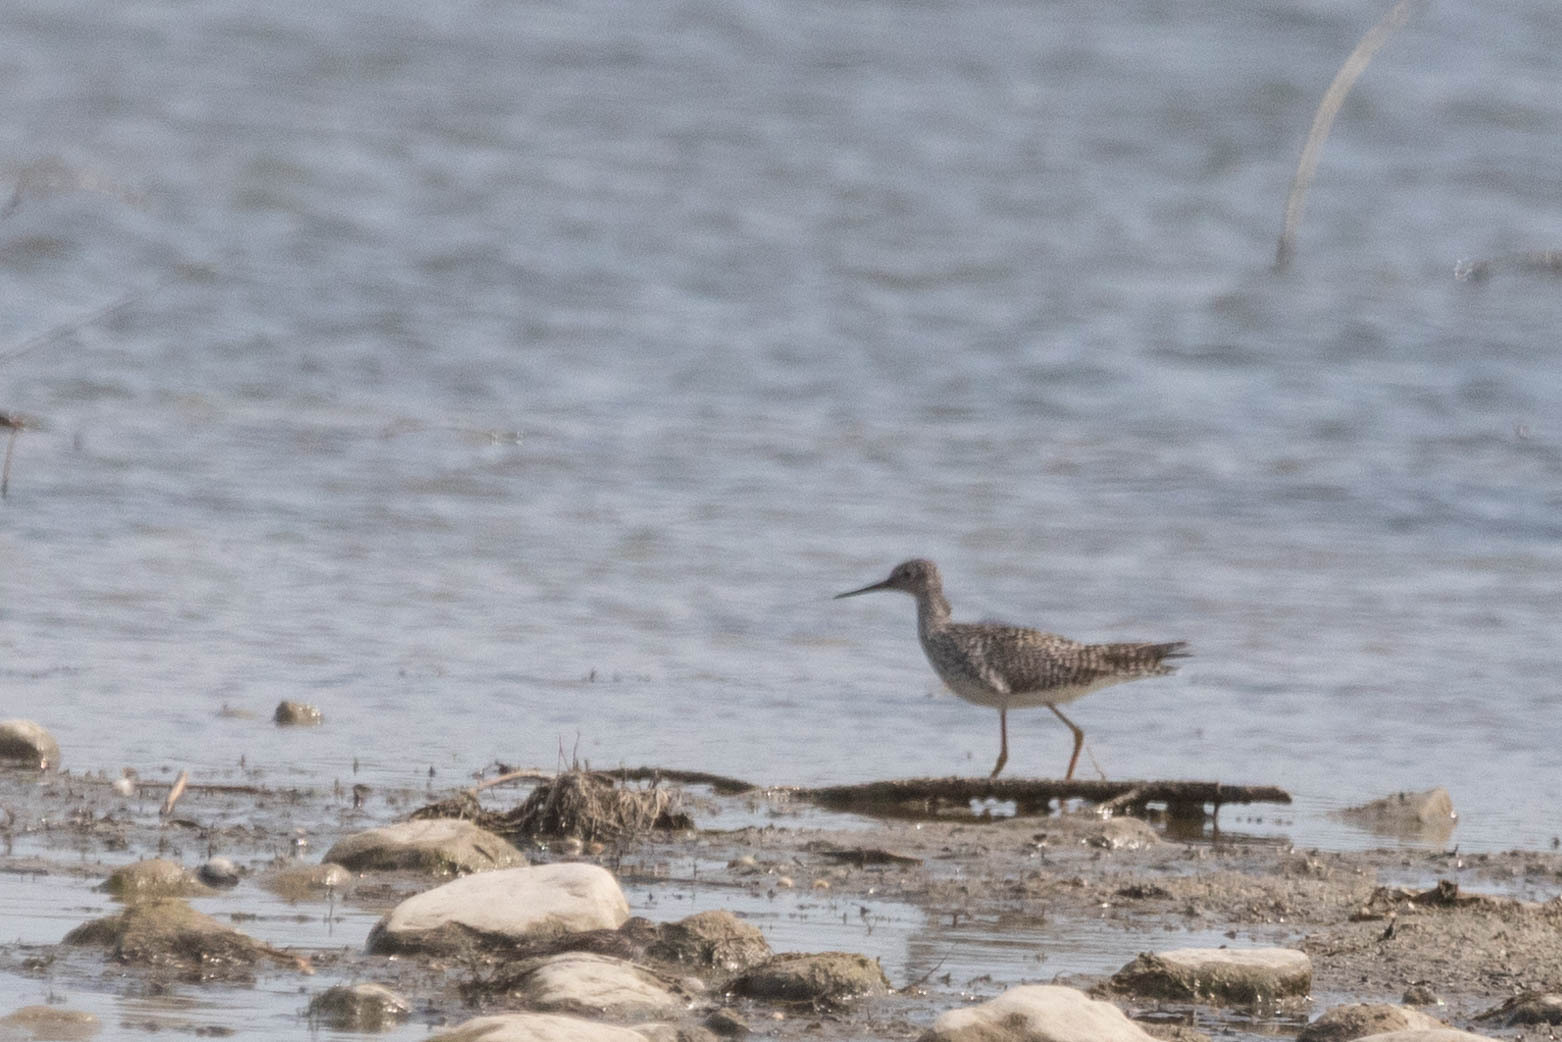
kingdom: Animalia
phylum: Chordata
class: Aves
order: Charadriiformes
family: Scolopacidae
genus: Tringa
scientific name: Tringa melanoleuca
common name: Greater yellowlegs
